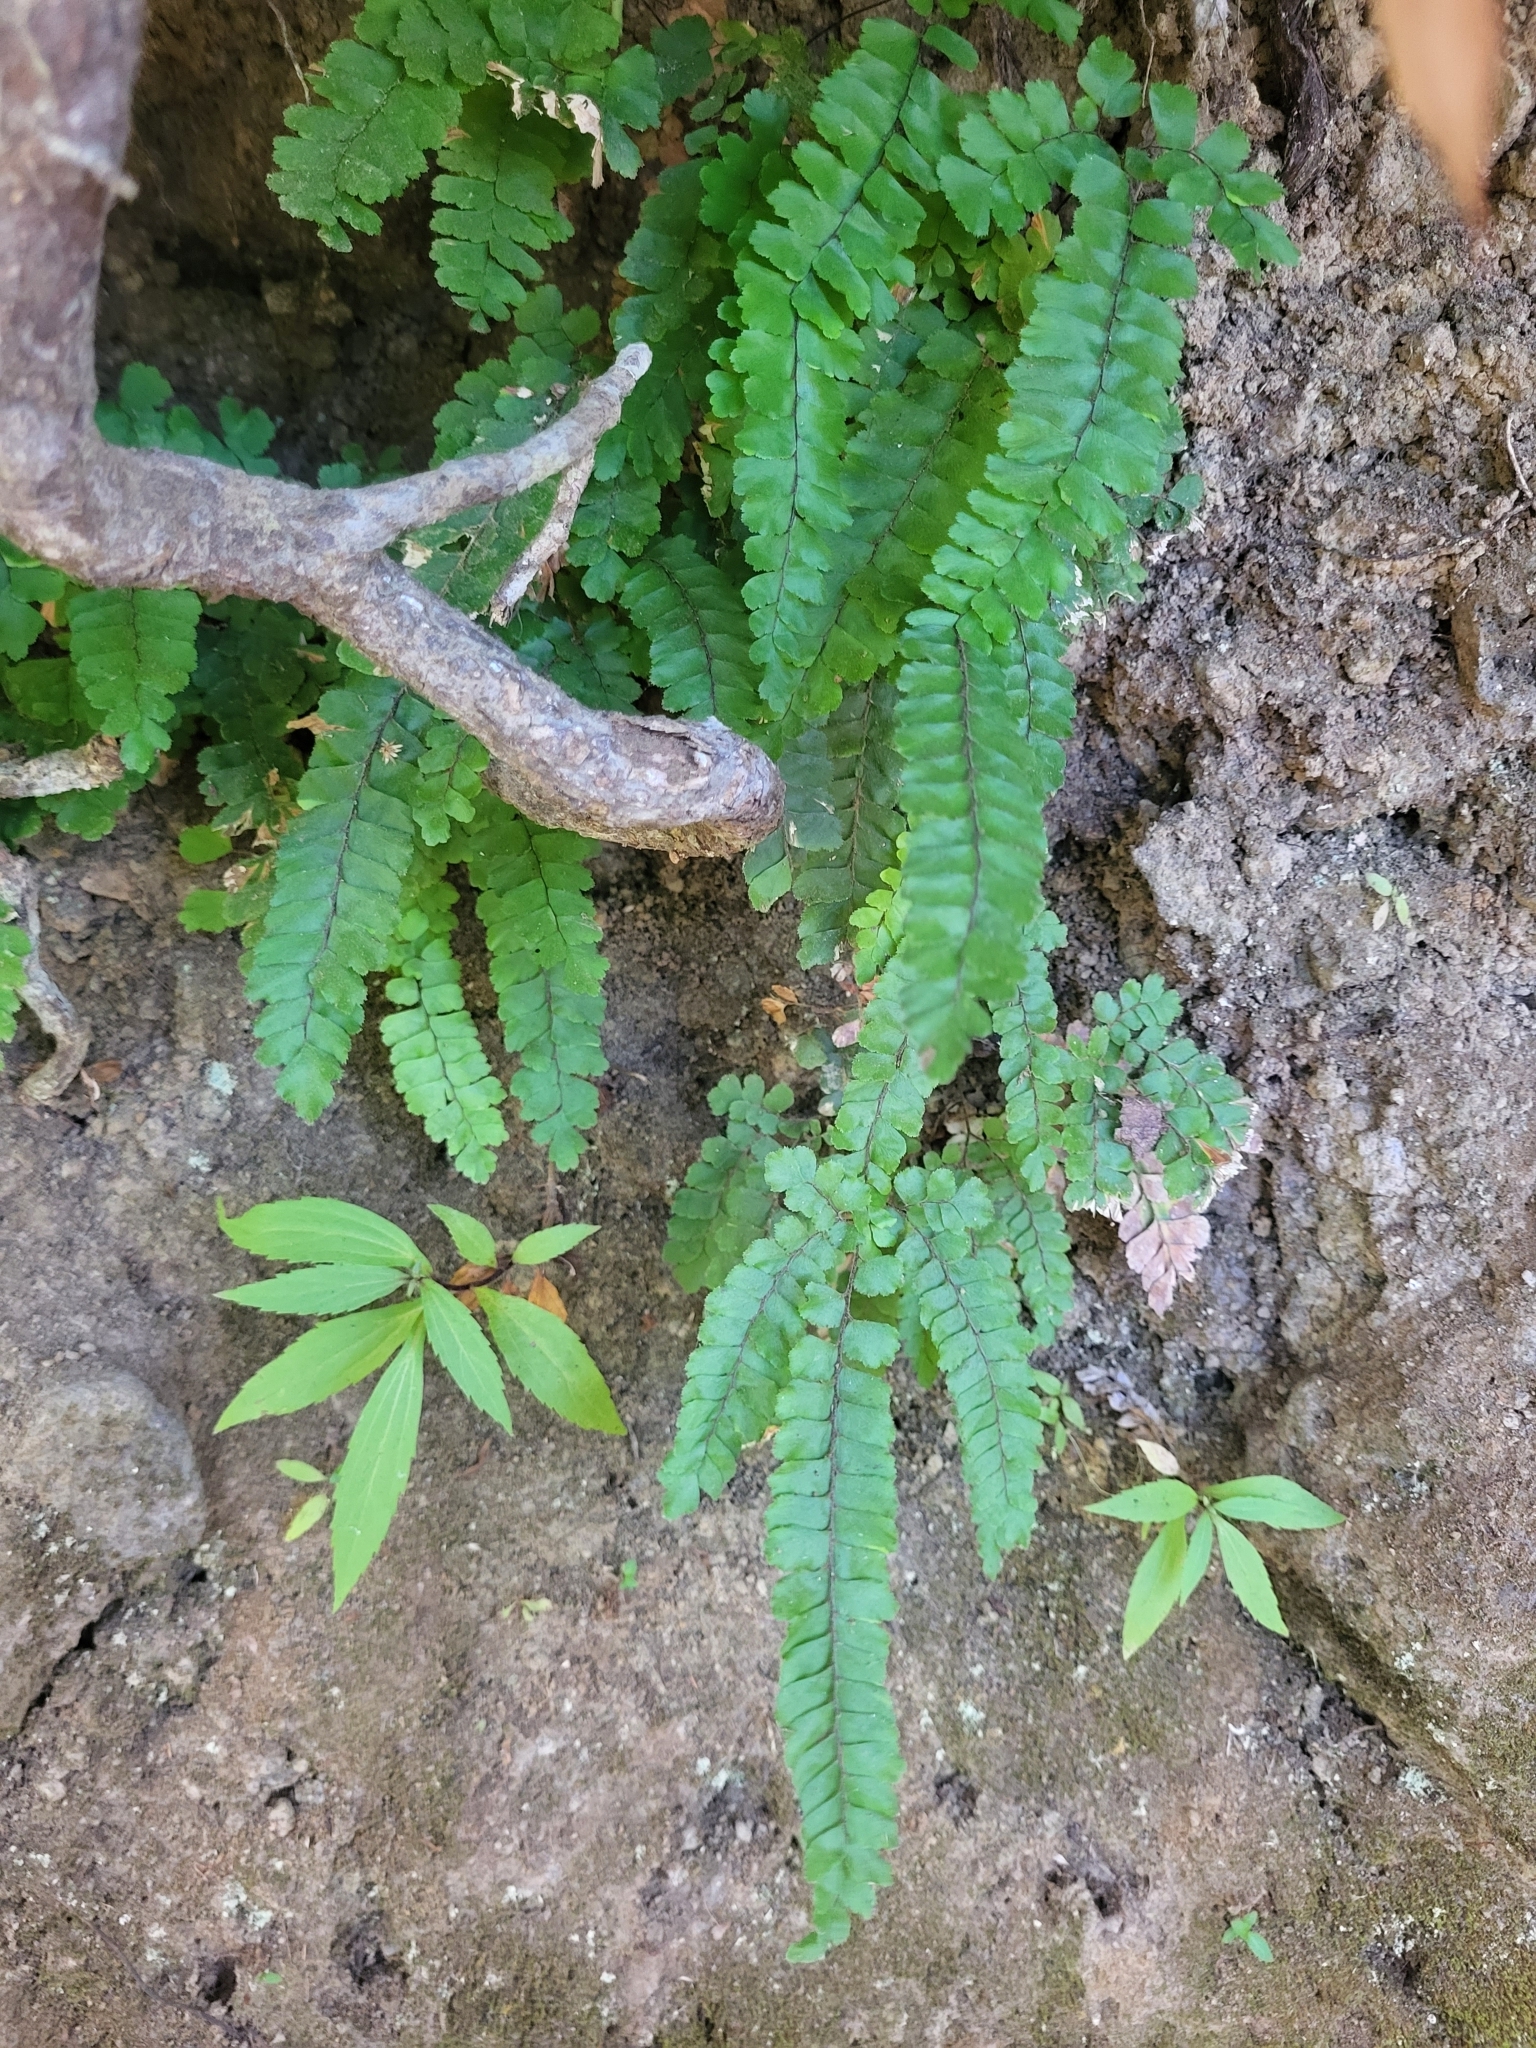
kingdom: Plantae
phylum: Tracheophyta
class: Polypodiopsida
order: Polypodiales
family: Pteridaceae
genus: Adiantum
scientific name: Adiantum hispidulum
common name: Rough maidenhair
